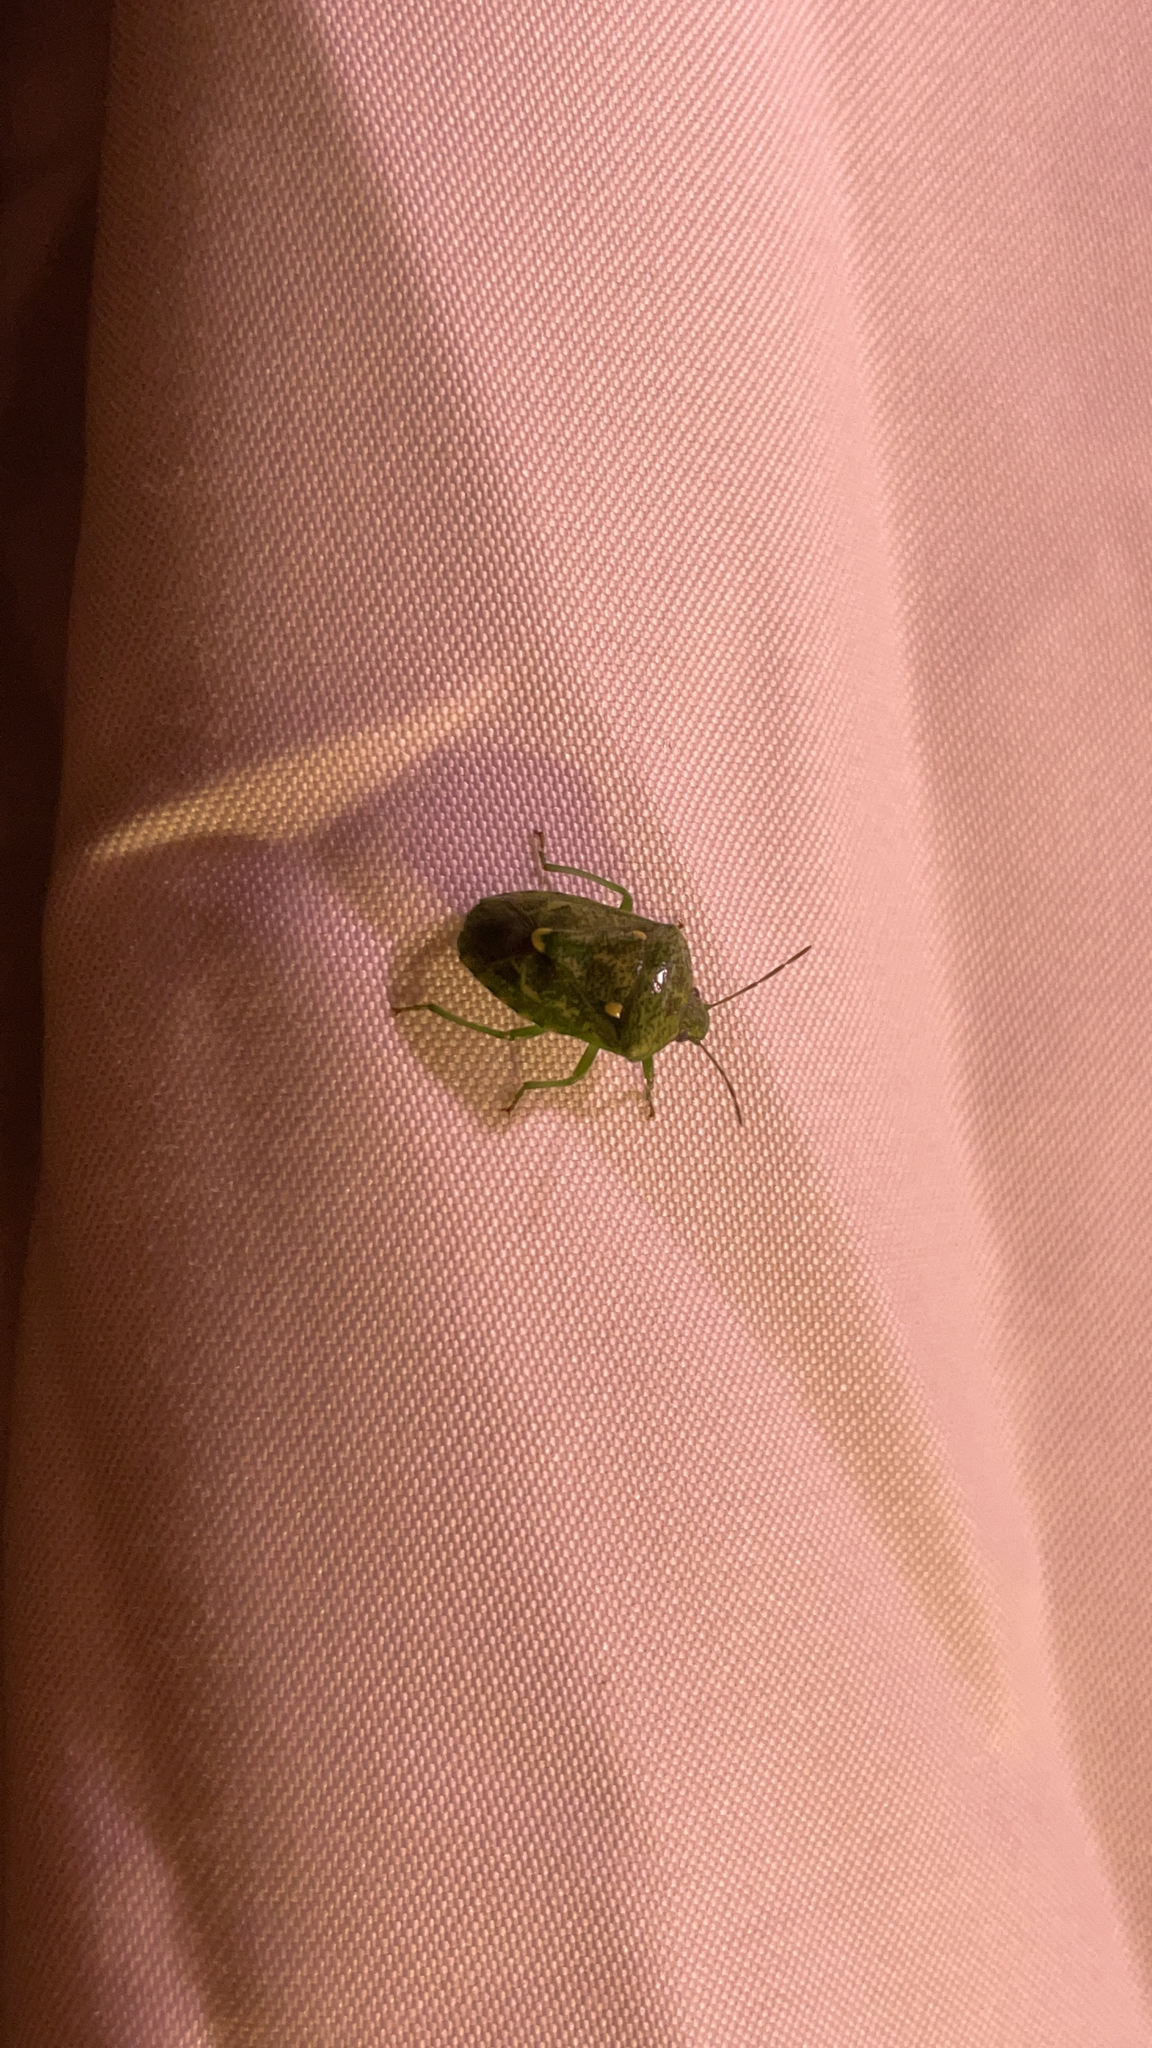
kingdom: Animalia
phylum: Arthropoda
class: Insecta
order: Hemiptera
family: Pentatomidae
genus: Banasa
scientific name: Banasa euchlora
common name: Cedar berry bug
